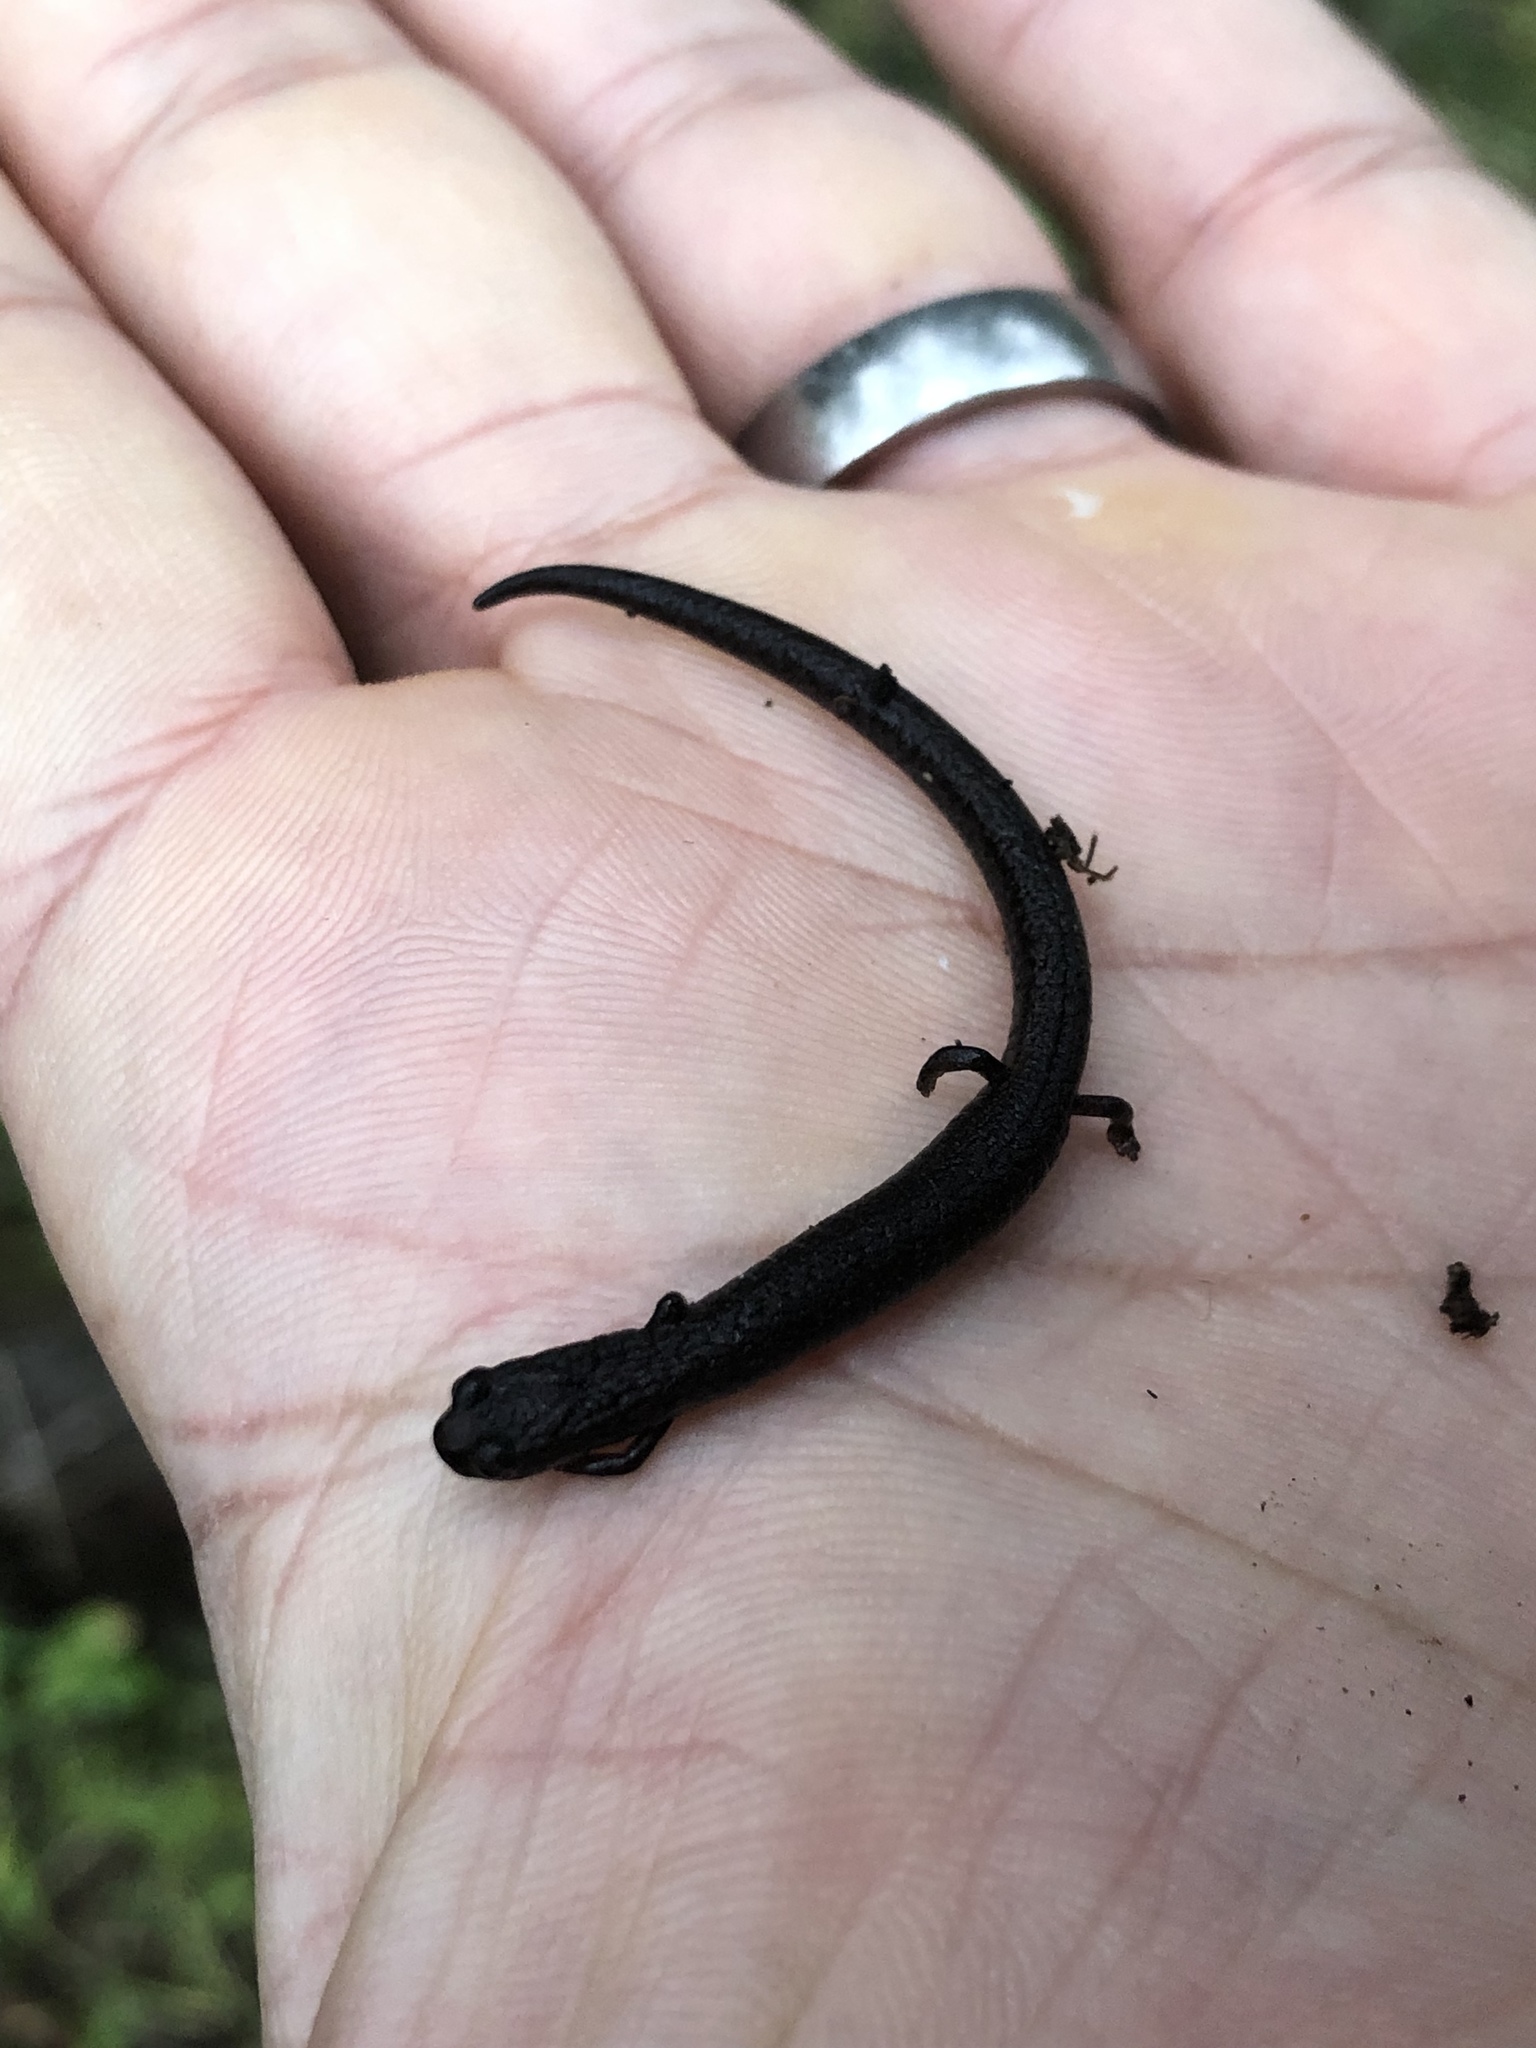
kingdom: Animalia
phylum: Chordata
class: Amphibia
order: Caudata
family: Plethodontidae
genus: Batrachoseps
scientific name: Batrachoseps attenuatus
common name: California slender salamander
